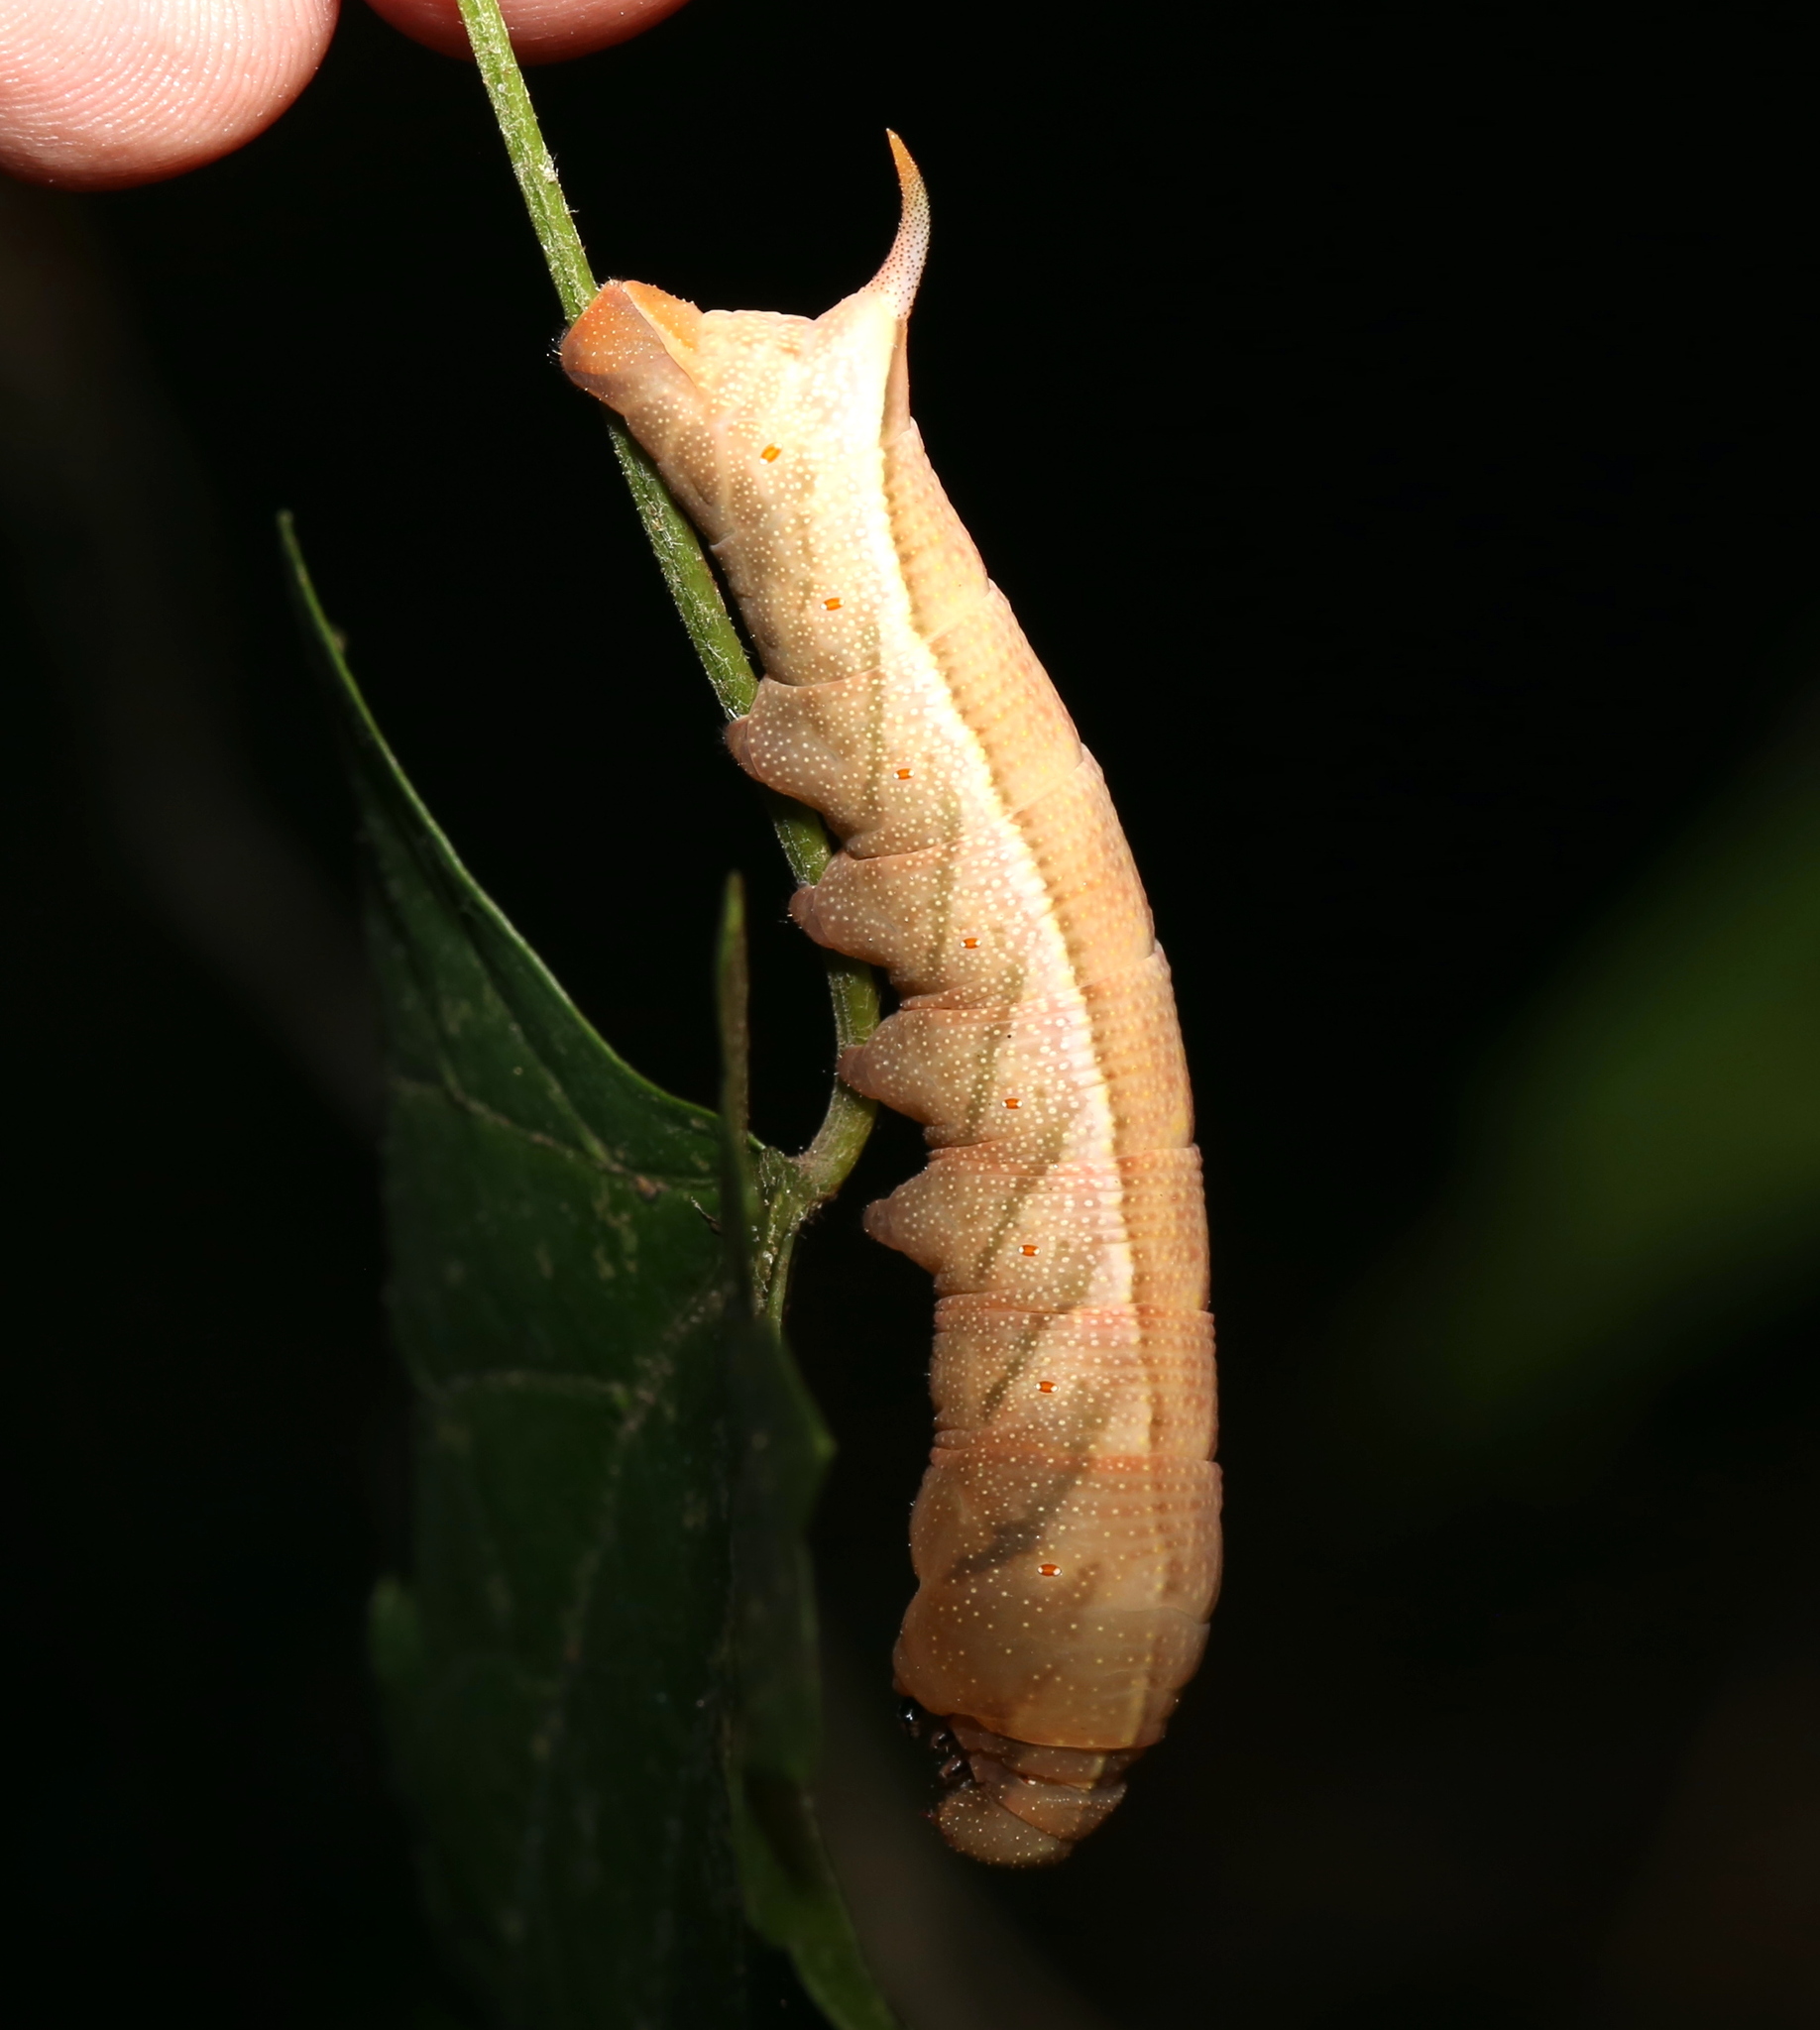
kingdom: Animalia
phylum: Arthropoda
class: Insecta
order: Lepidoptera
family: Sphingidae
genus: Darapsa
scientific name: Darapsa myron
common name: Hog sphinx
